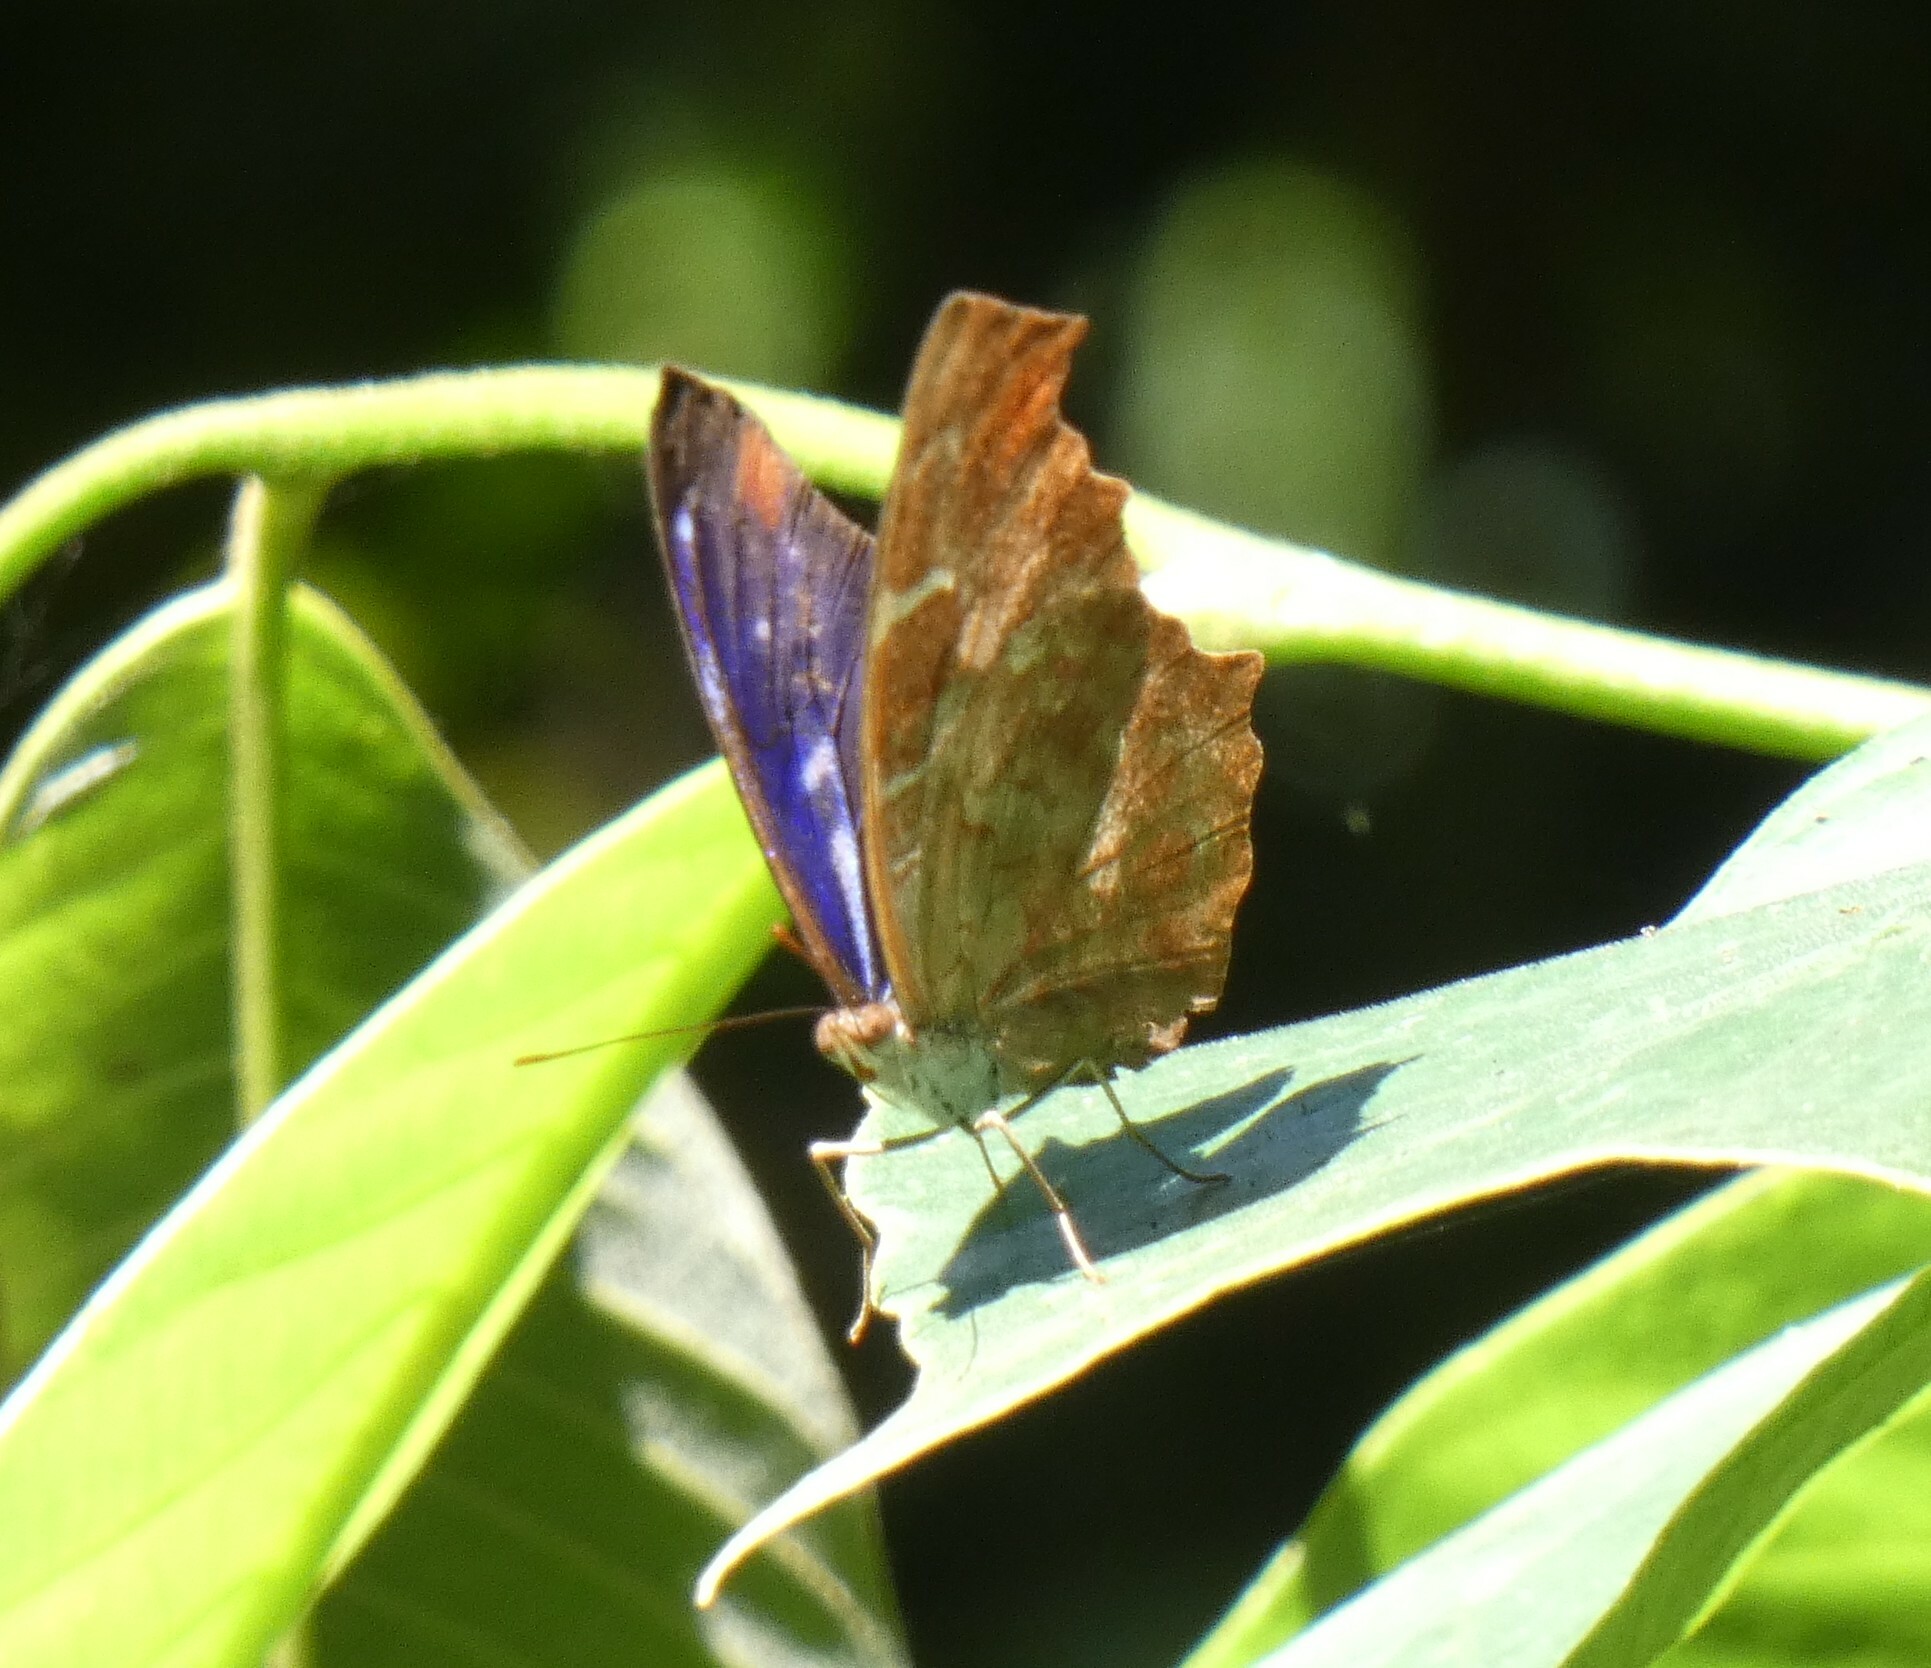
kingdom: Animalia
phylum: Arthropoda
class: Insecta
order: Lepidoptera
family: Nymphalidae
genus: Myscelia
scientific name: Myscelia orsis
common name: Orsis bluewing
